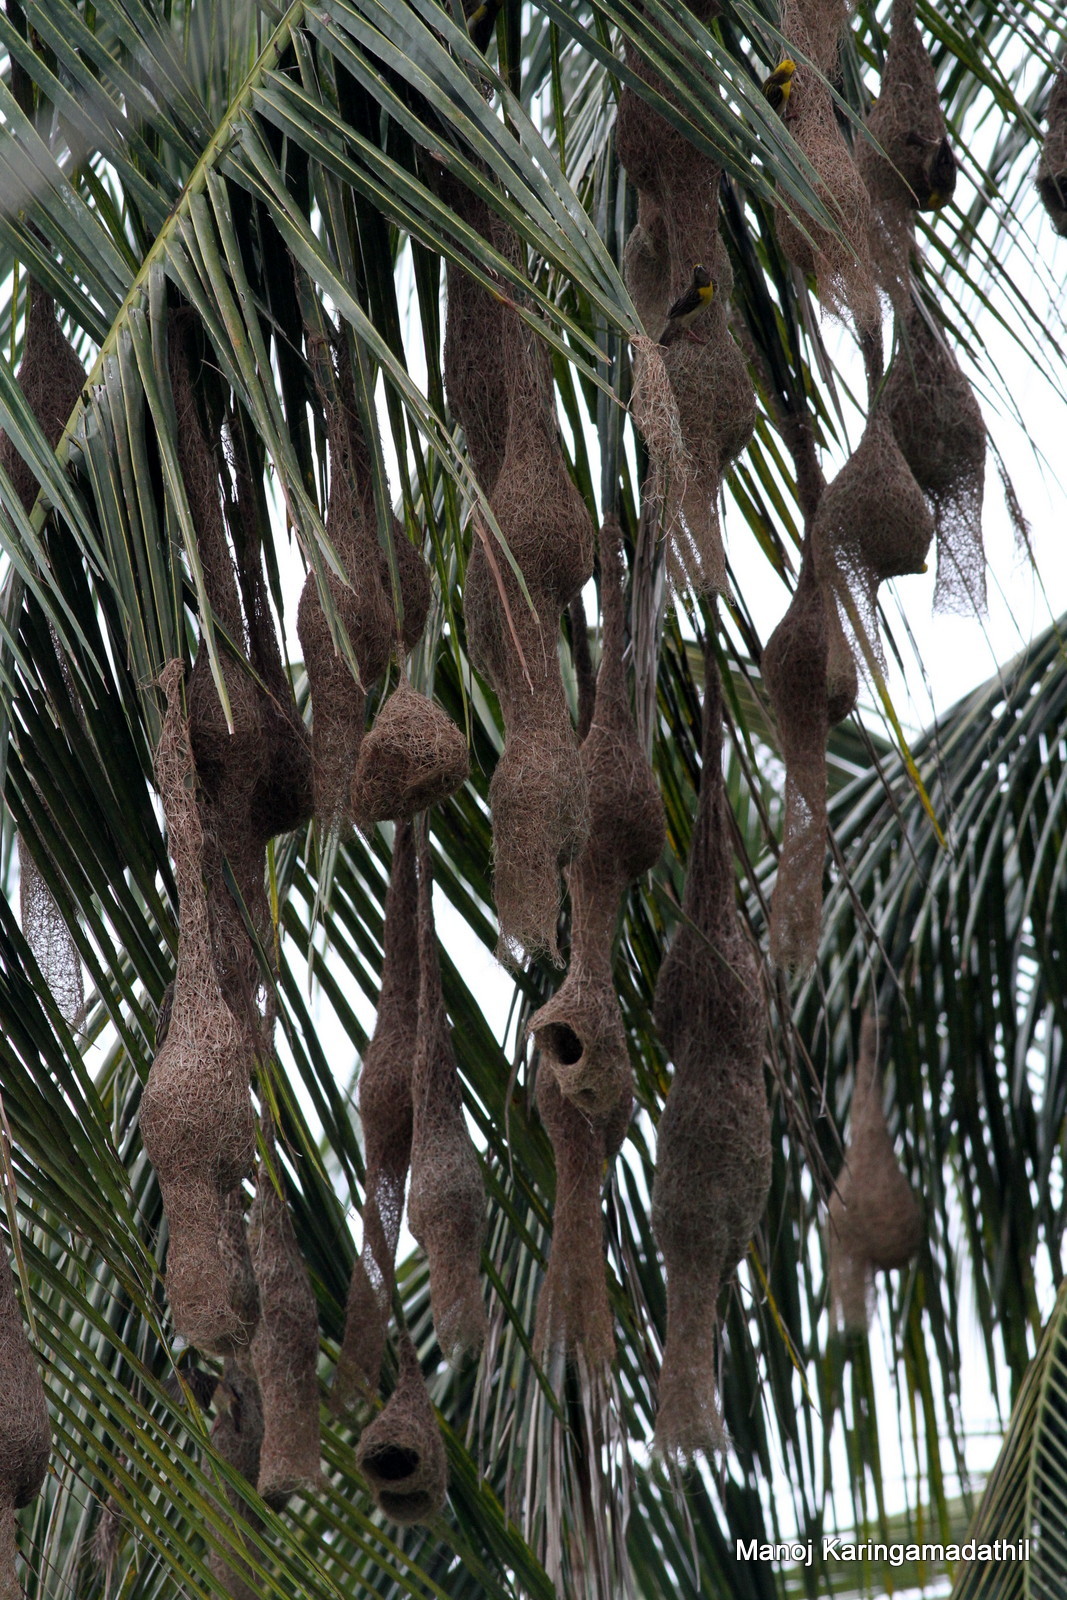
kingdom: Animalia
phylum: Chordata
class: Aves
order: Passeriformes
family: Ploceidae
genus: Ploceus
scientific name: Ploceus philippinus
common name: Baya weaver
